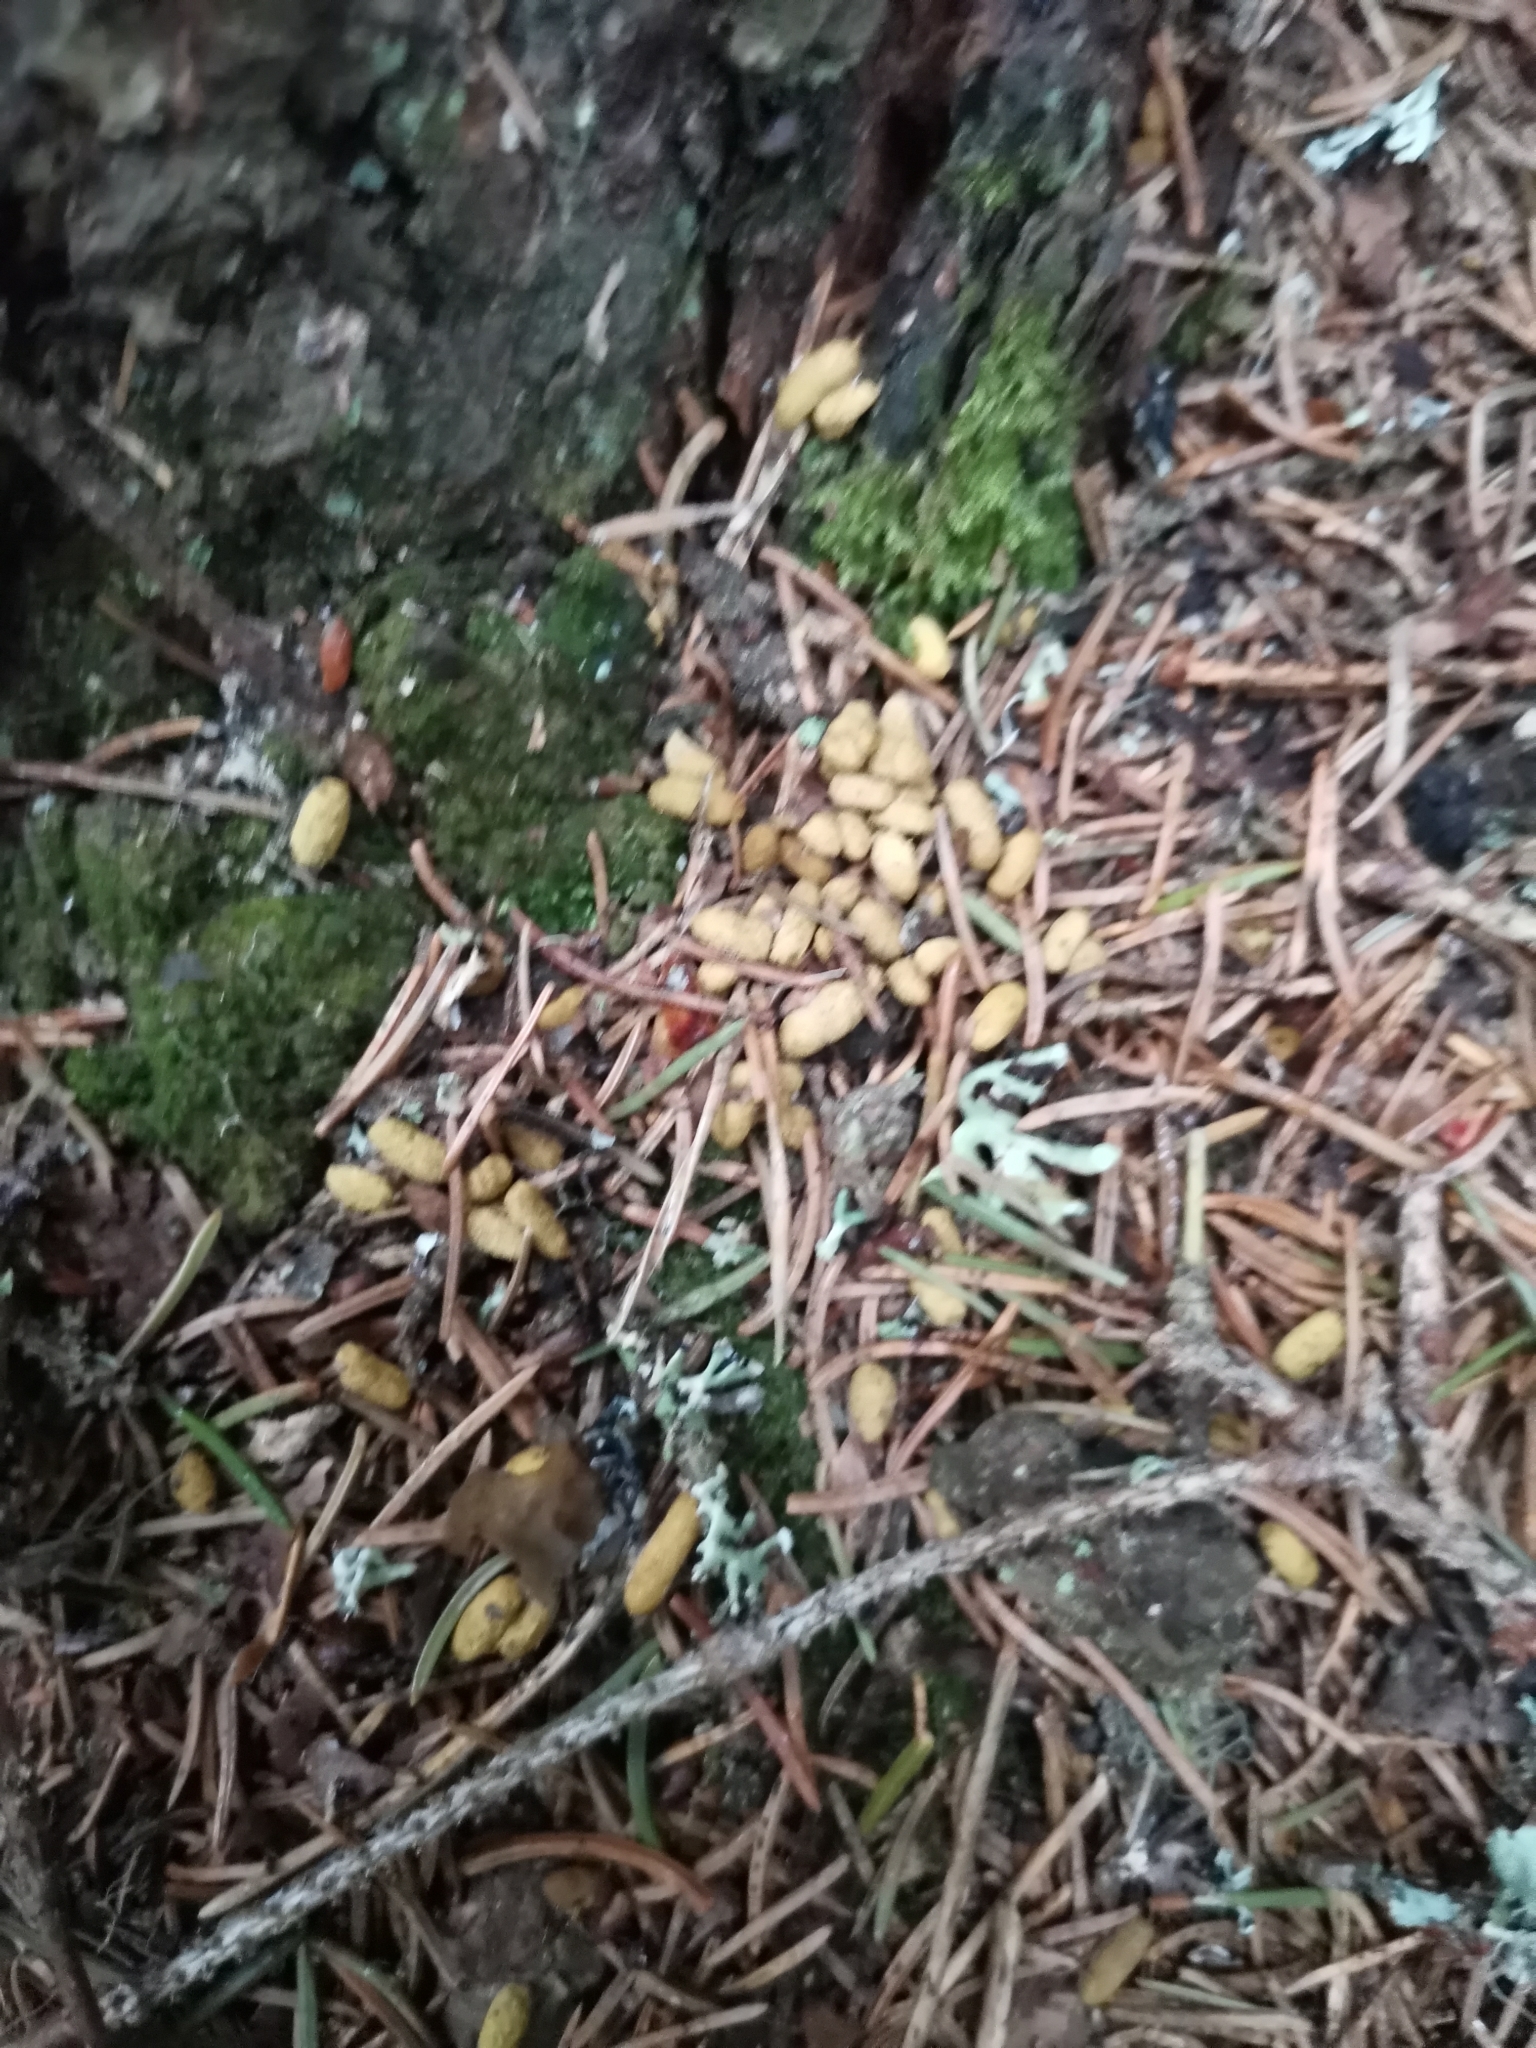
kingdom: Animalia
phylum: Chordata
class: Mammalia
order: Rodentia
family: Sciuridae
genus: Pteromys
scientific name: Pteromys volans
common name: Siberian flying squirrel
